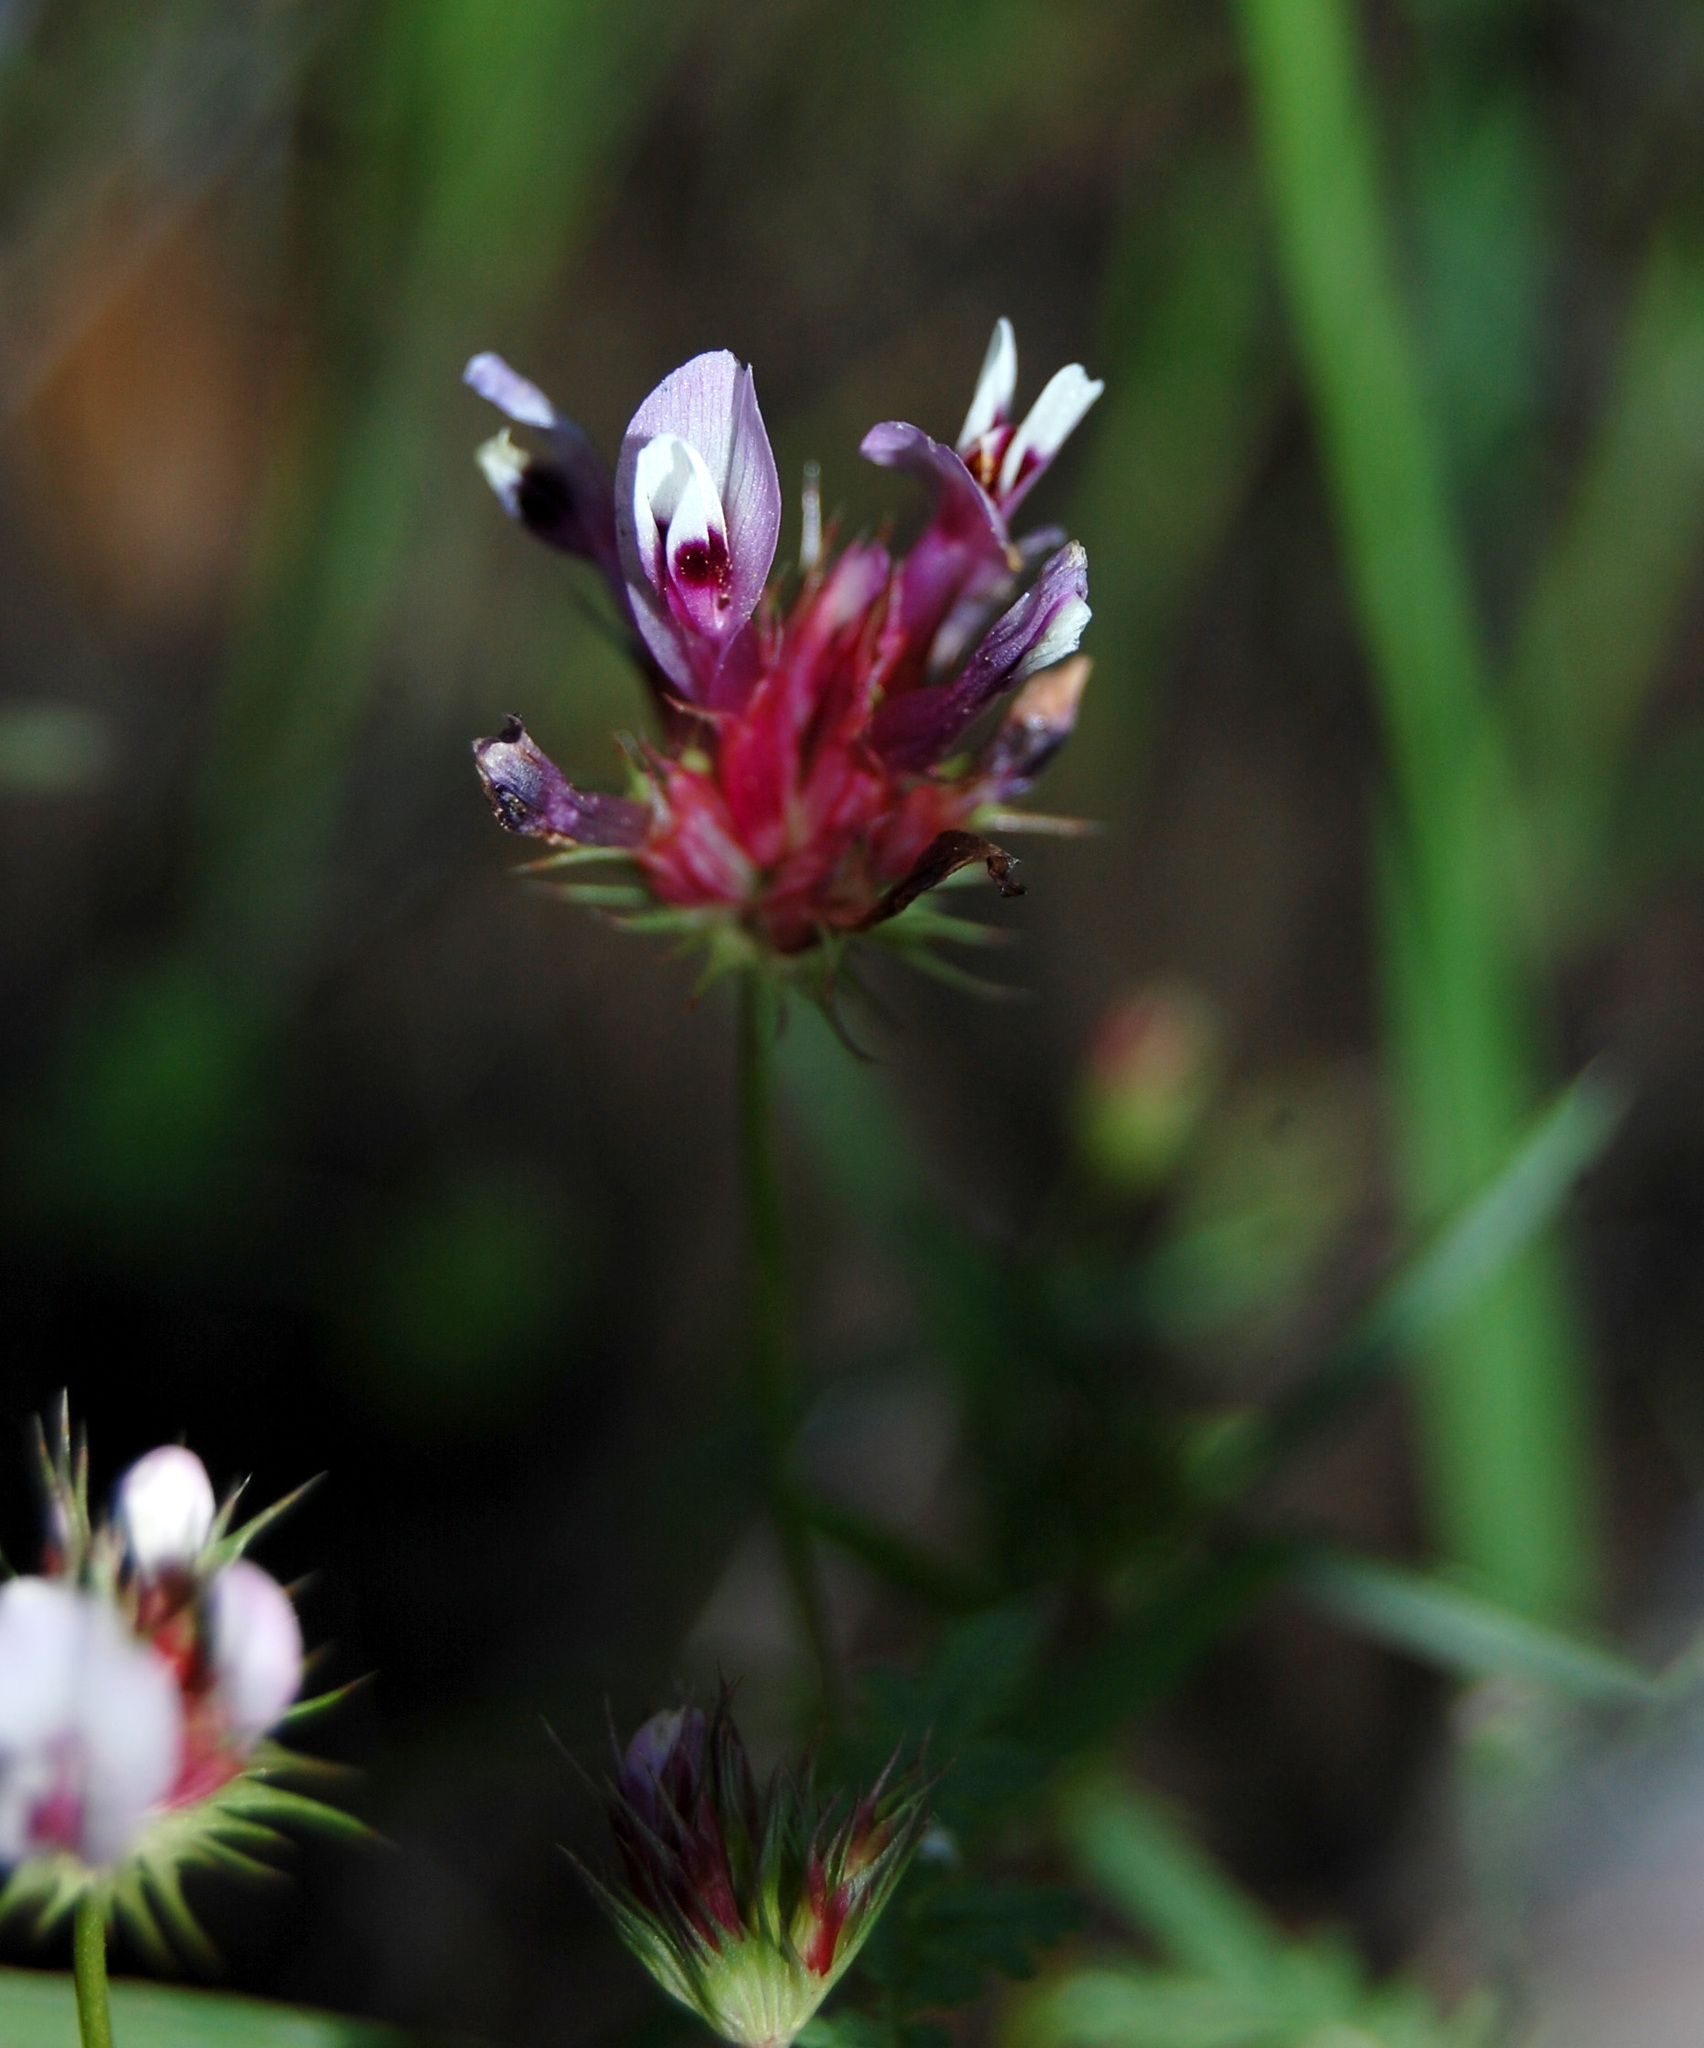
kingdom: Plantae
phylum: Tracheophyta
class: Magnoliopsida
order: Fabales
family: Fabaceae
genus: Trifolium
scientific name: Trifolium willdenovii
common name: Tomcat clover
